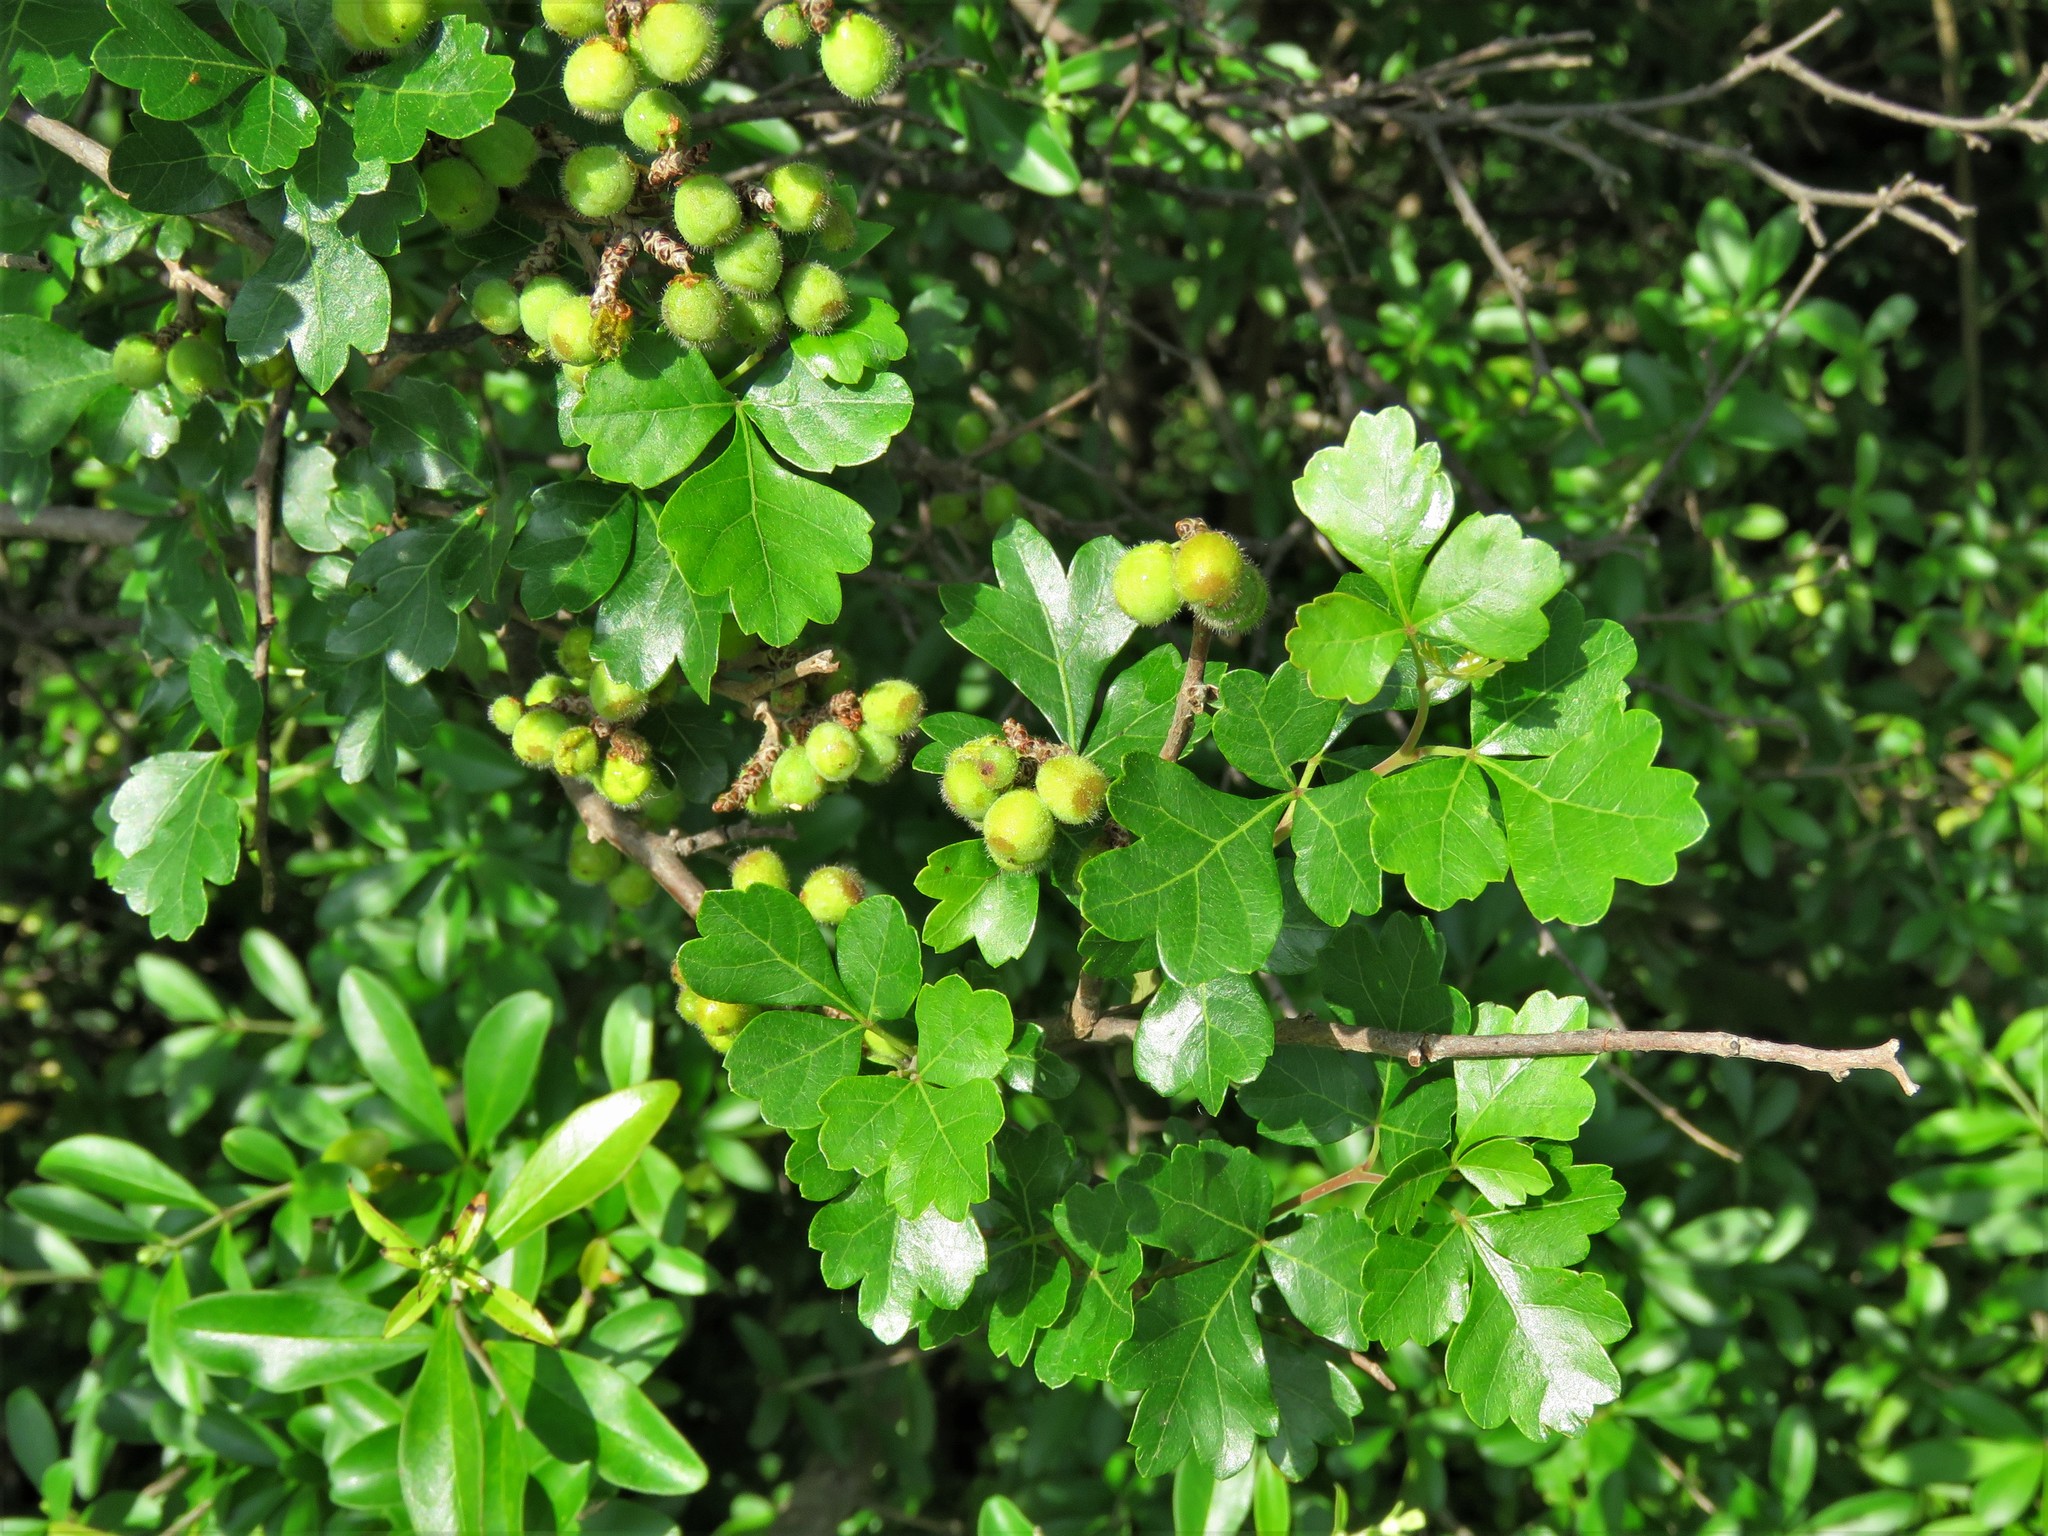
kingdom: Plantae
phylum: Tracheophyta
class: Magnoliopsida
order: Sapindales
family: Anacardiaceae
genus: Rhus
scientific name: Rhus aromatica
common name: Aromatic sumac
